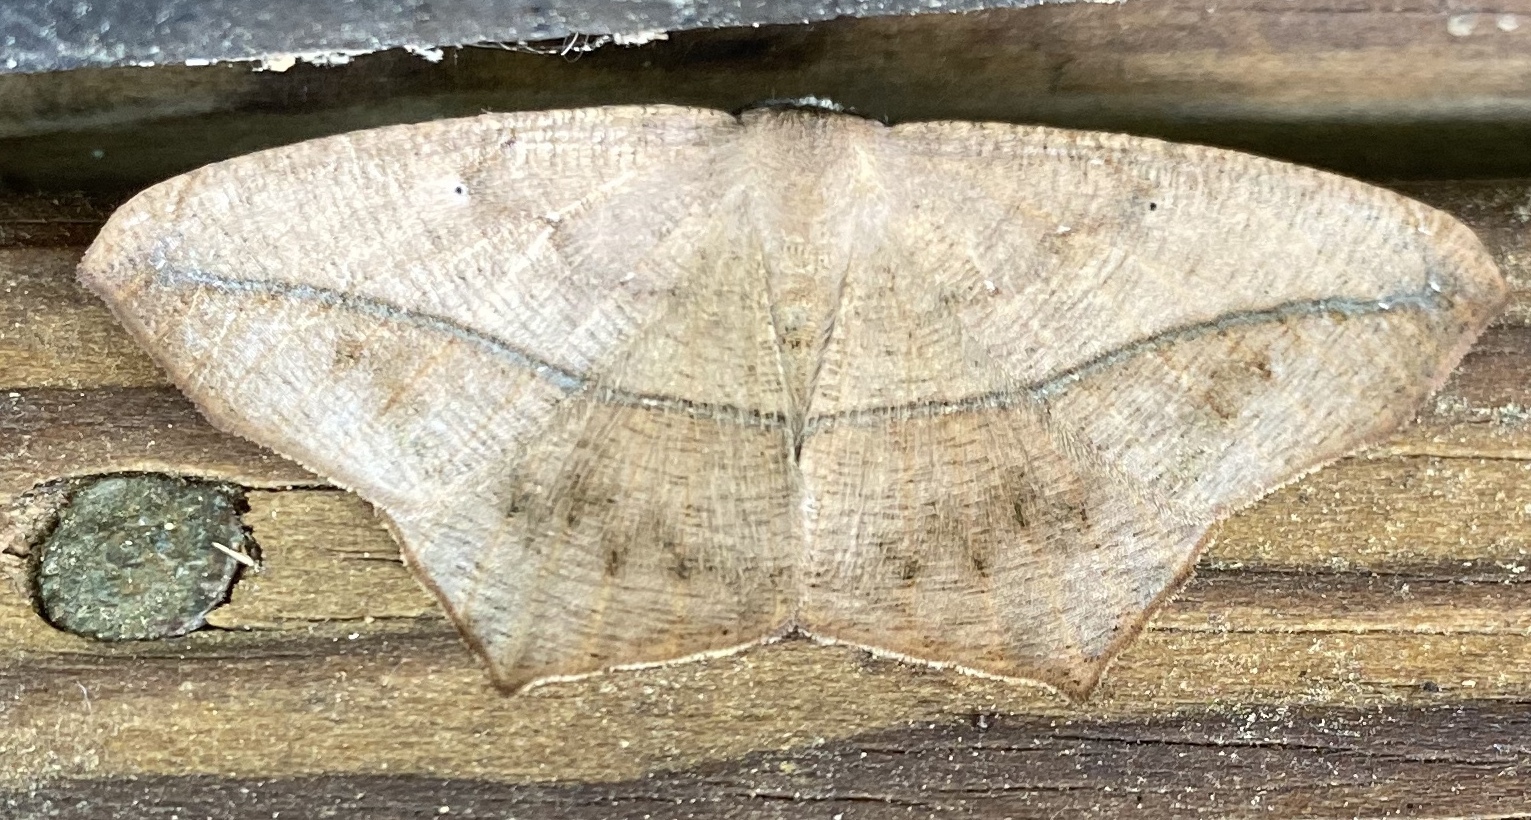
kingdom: Animalia
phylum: Arthropoda
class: Insecta
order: Lepidoptera
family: Geometridae
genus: Prochoerodes
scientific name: Prochoerodes lineola
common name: Large maple spanworm
